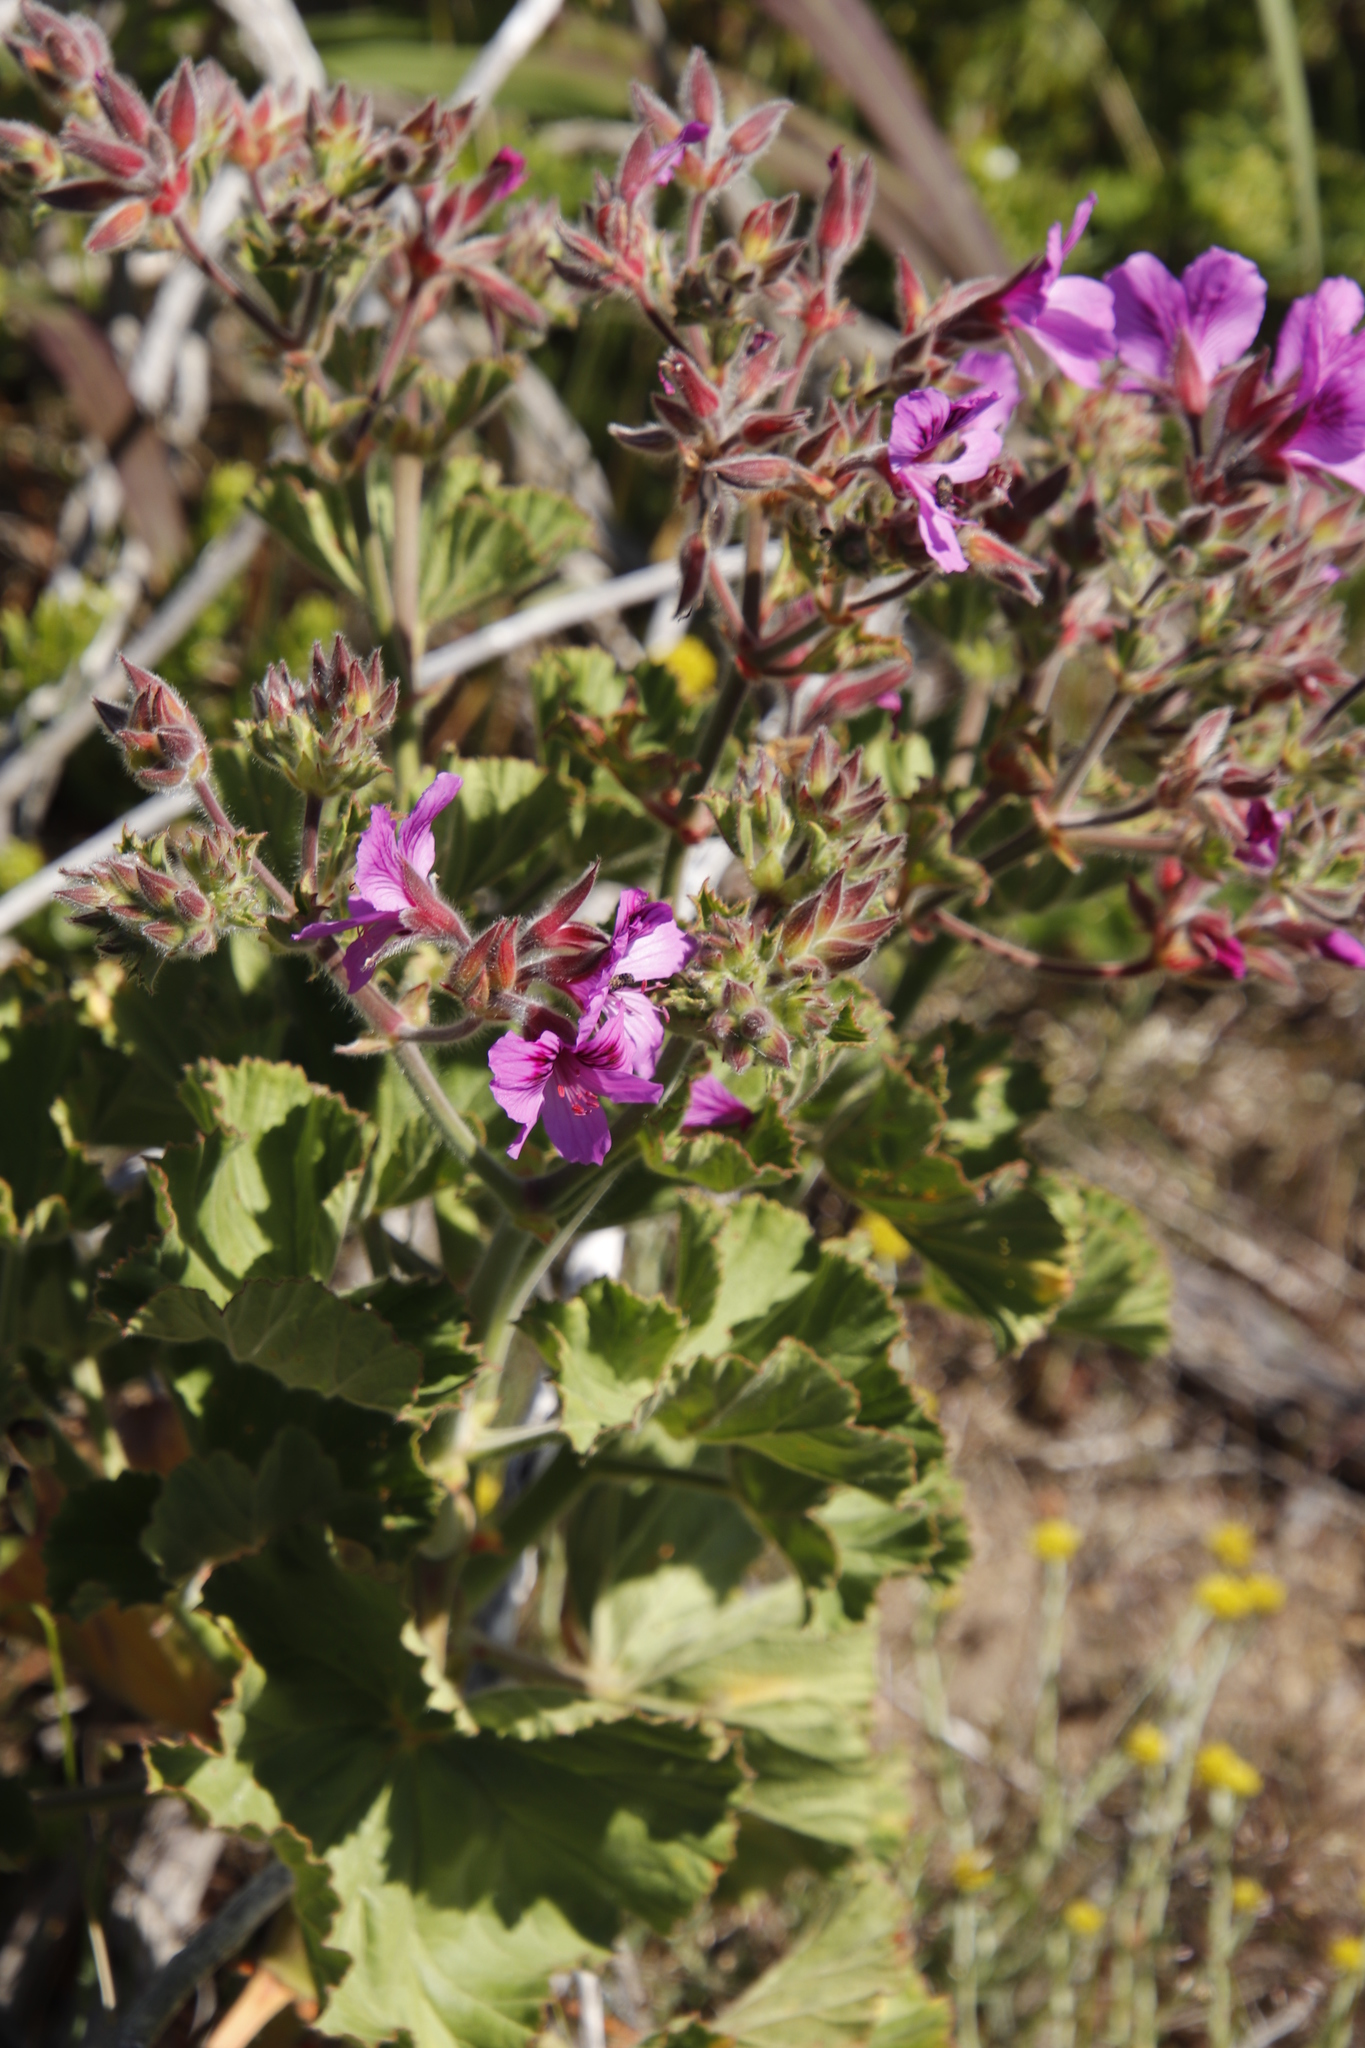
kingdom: Plantae
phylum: Tracheophyta
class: Magnoliopsida
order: Geraniales
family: Geraniaceae
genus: Pelargonium
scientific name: Pelargonium cucullatum
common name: Tree pelargonium
